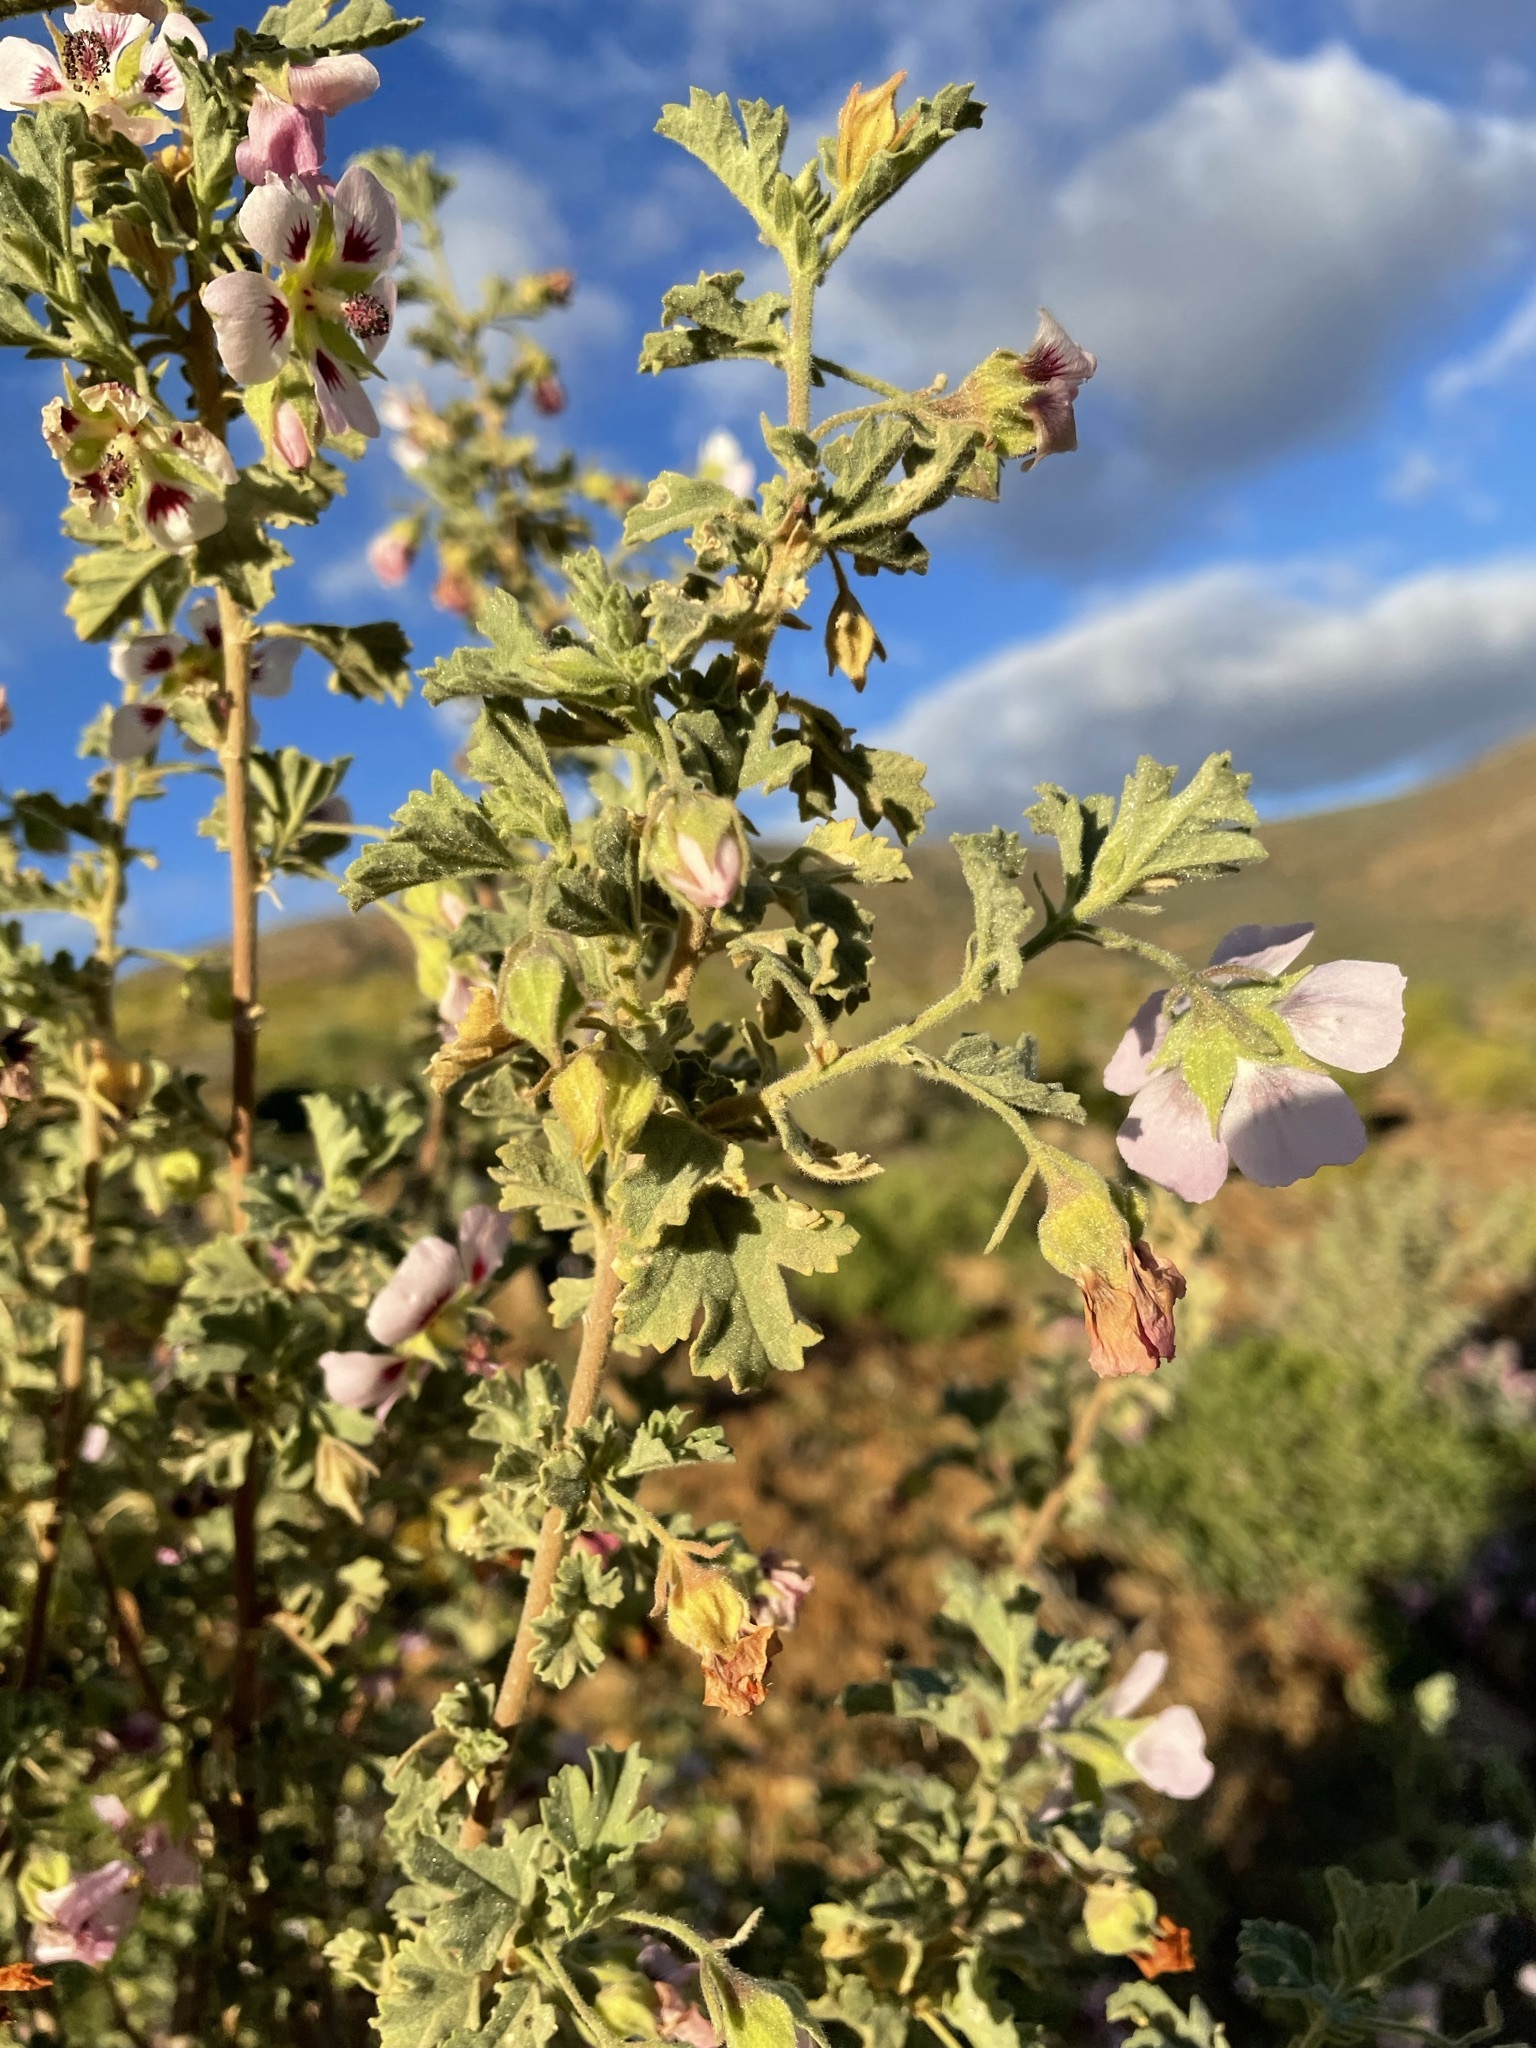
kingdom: Plantae
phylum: Tracheophyta
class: Magnoliopsida
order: Malvales
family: Malvaceae
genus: Anisodontea
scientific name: Anisodontea triloba
